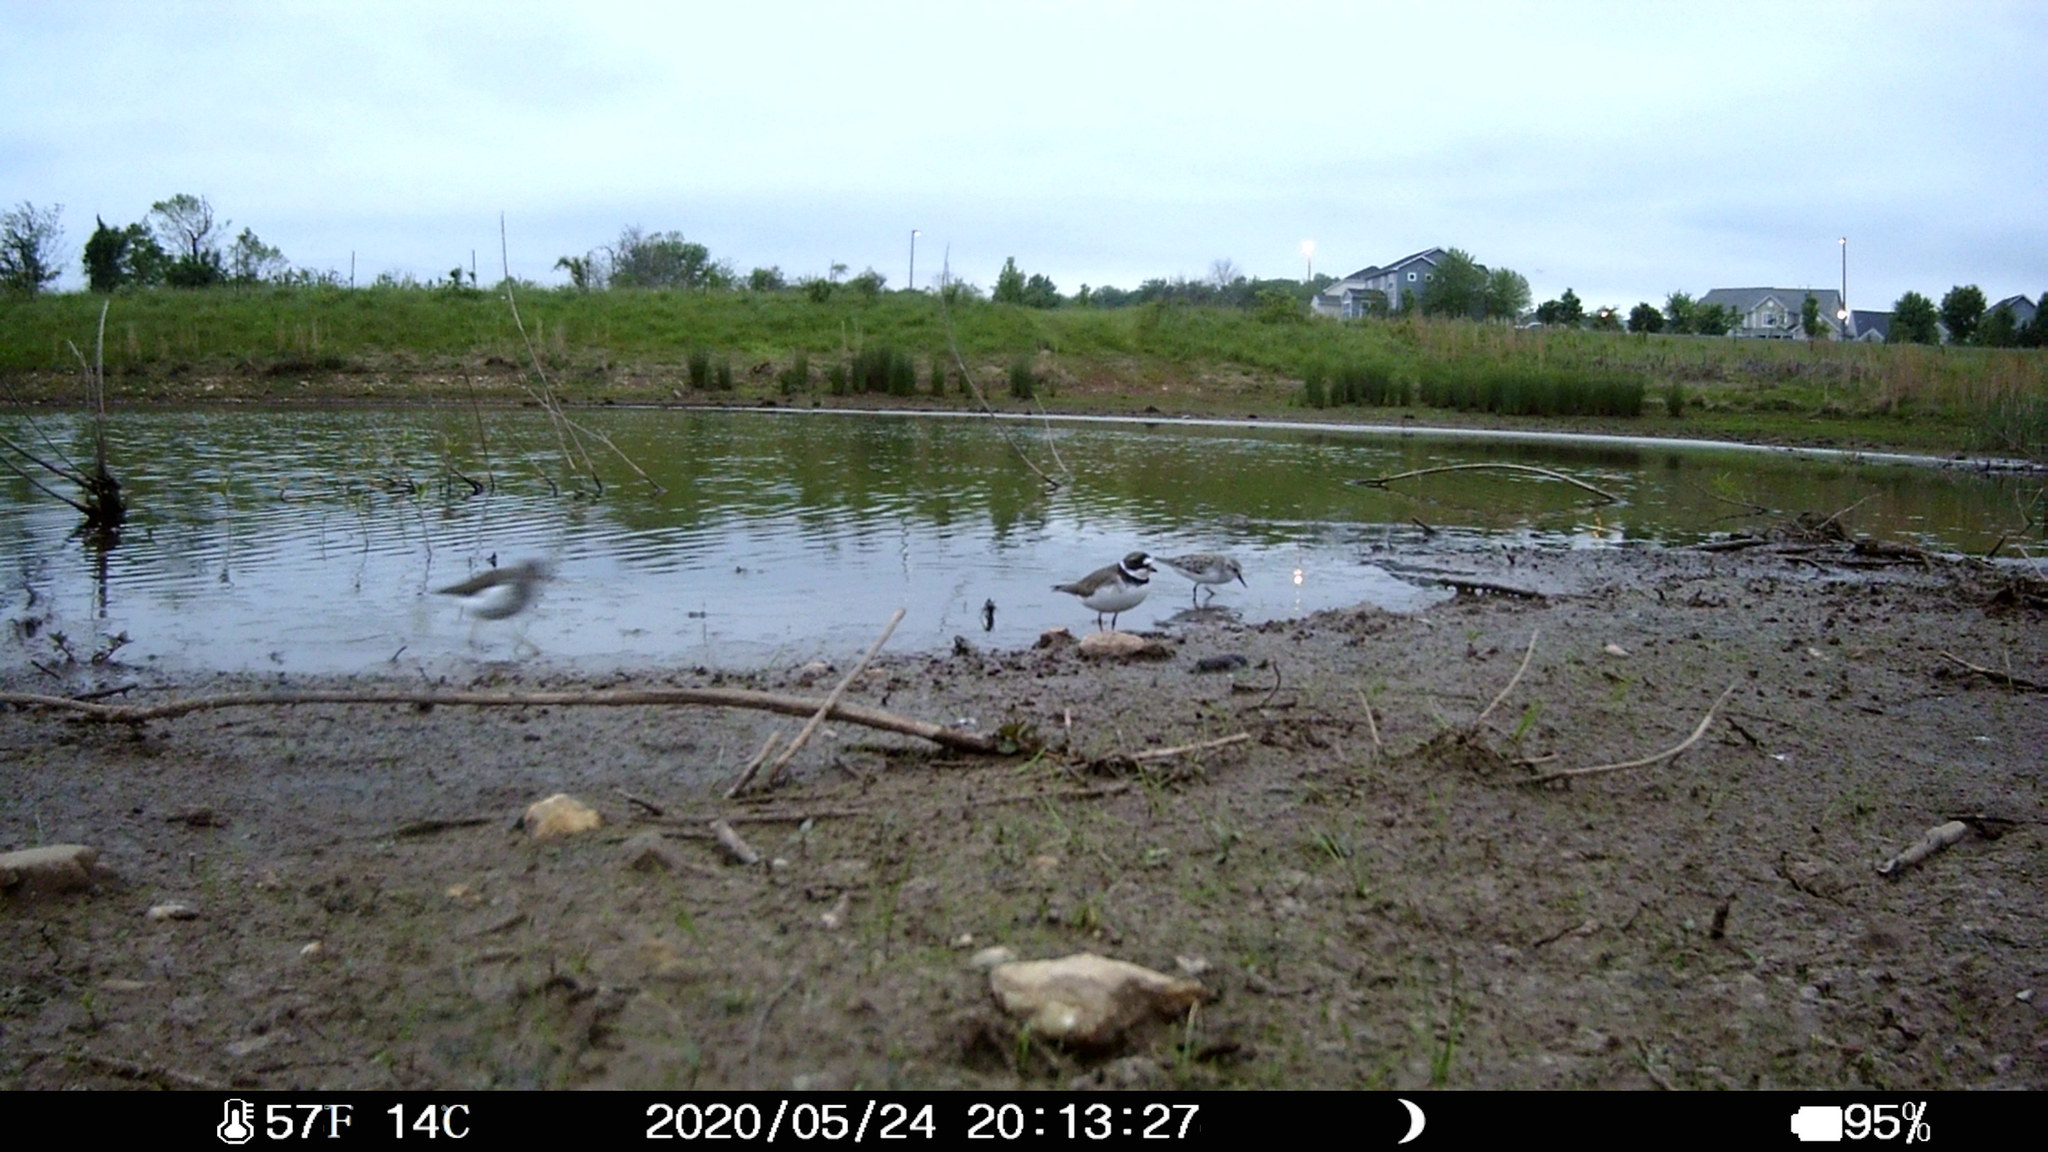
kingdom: Animalia
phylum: Chordata
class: Aves
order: Charadriiformes
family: Charadriidae
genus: Charadrius
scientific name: Charadrius semipalmatus
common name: Semipalmated plover
